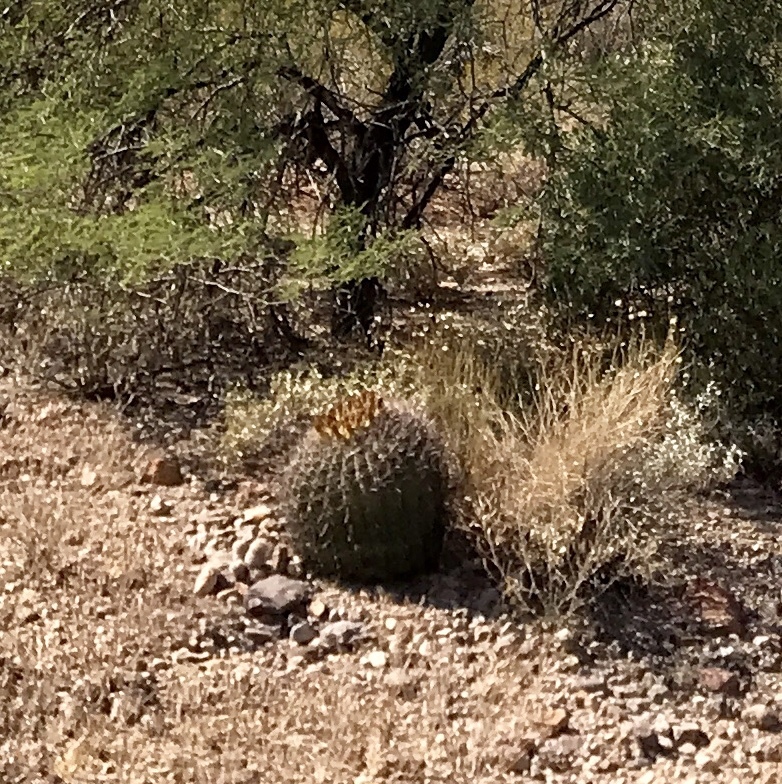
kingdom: Plantae
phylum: Tracheophyta
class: Magnoliopsida
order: Caryophyllales
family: Cactaceae
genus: Ferocactus
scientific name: Ferocactus wislizeni
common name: Candy barrel cactus
